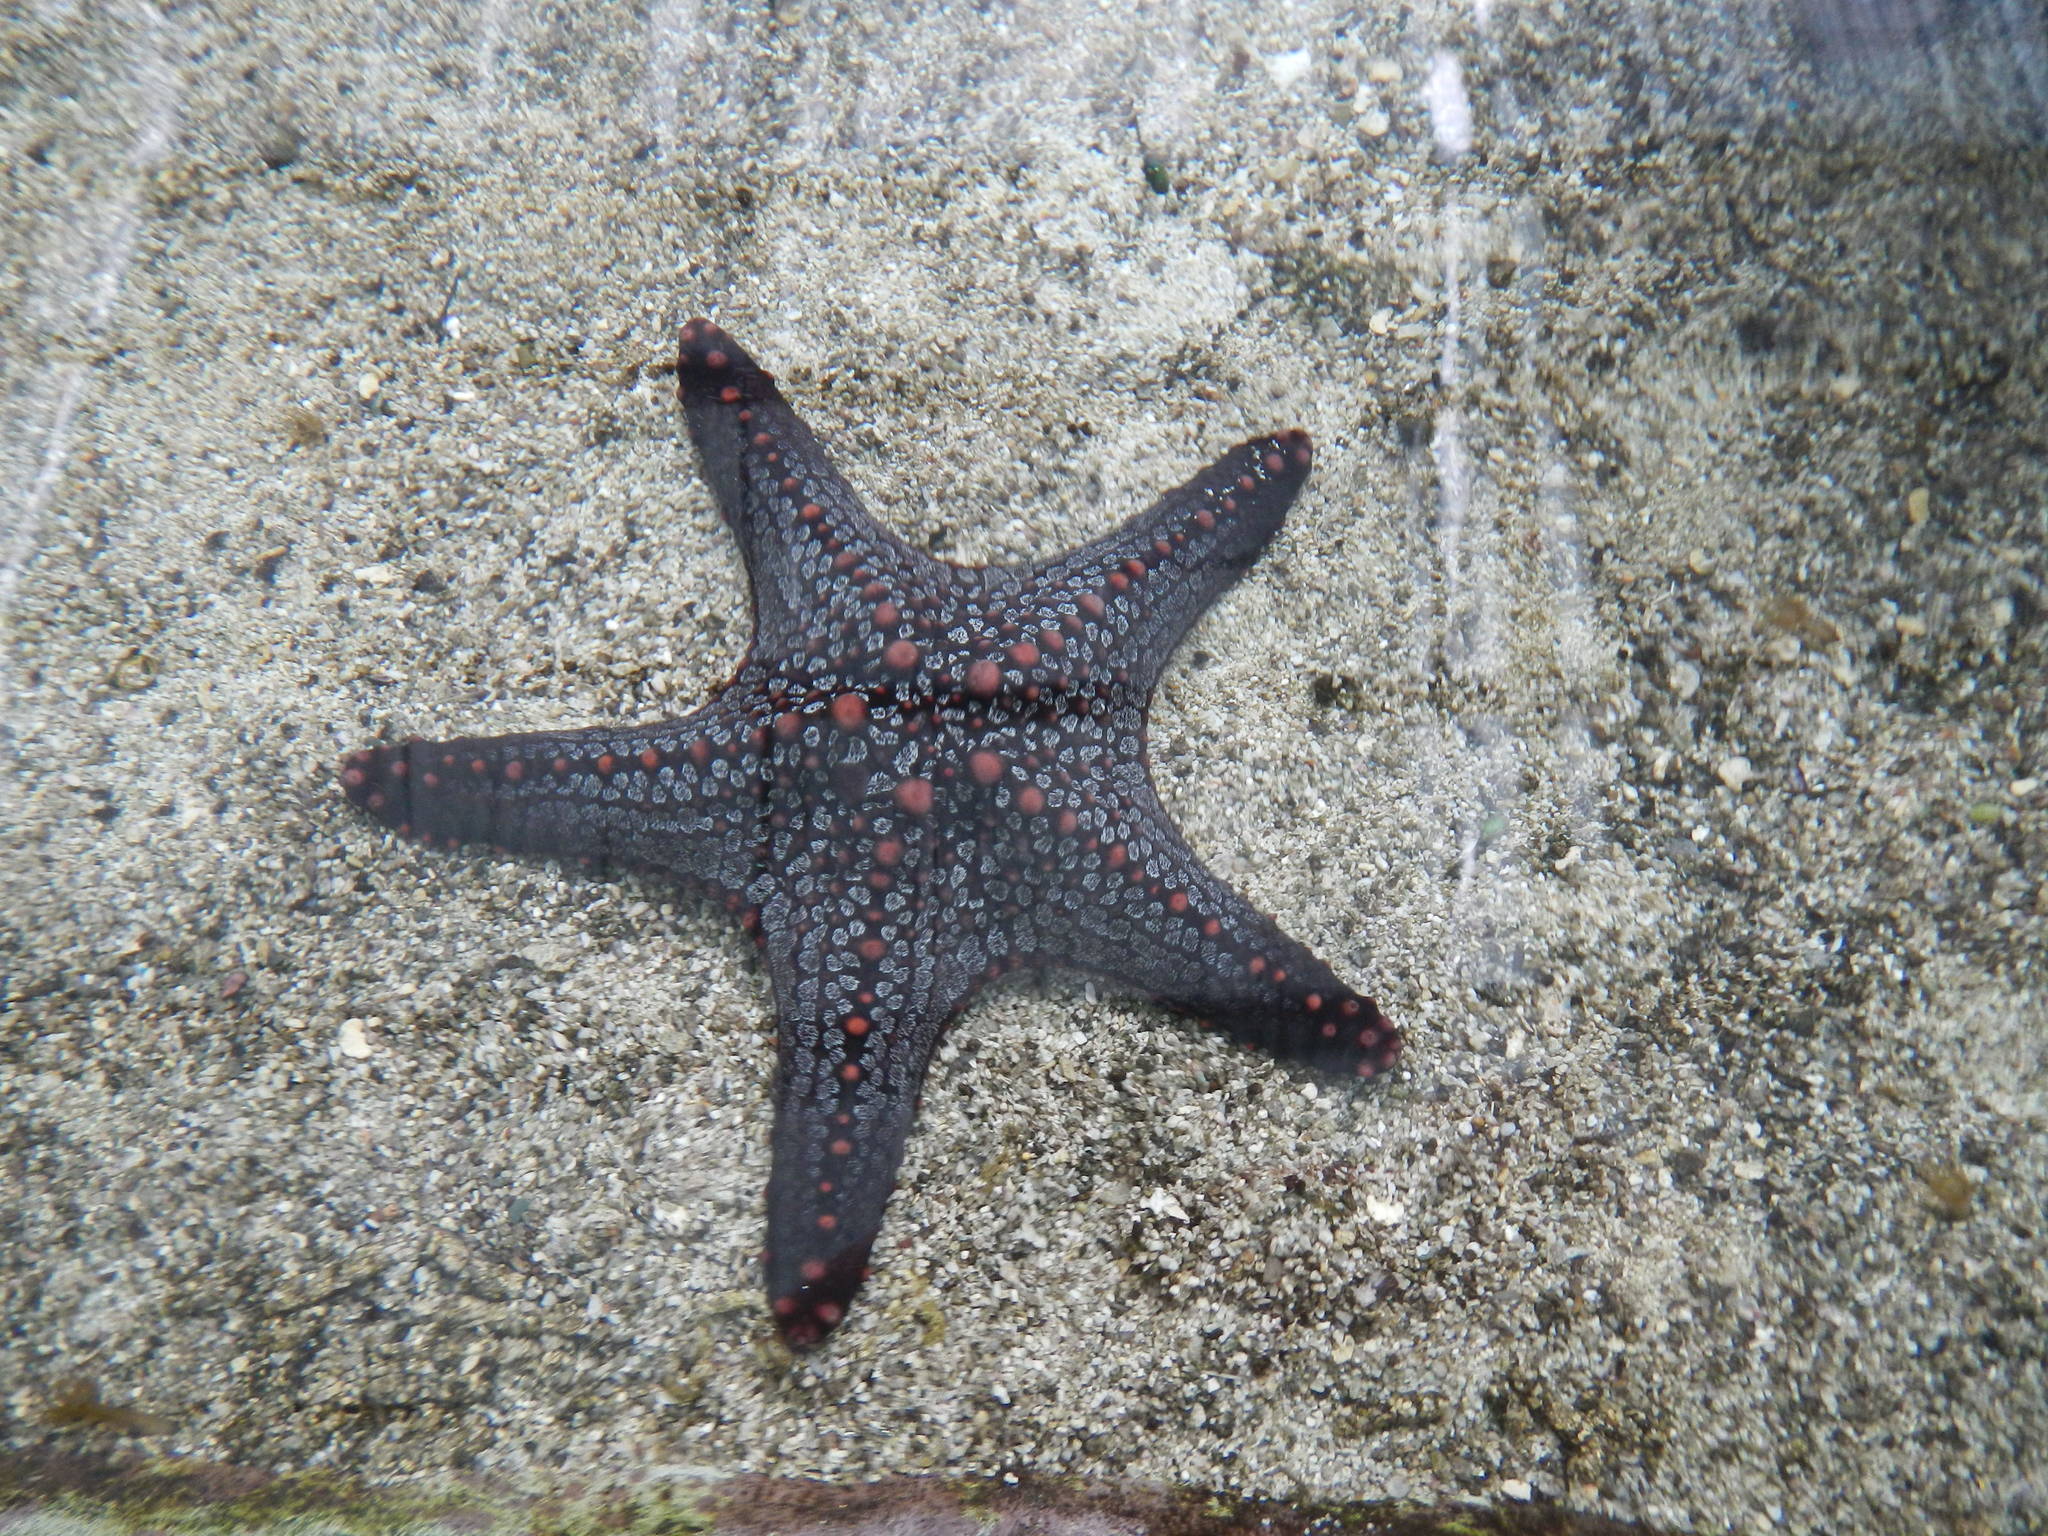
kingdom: Animalia
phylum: Echinodermata
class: Asteroidea
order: Valvatida
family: Oreasteridae
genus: Pentaceraster
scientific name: Pentaceraster cumingi
